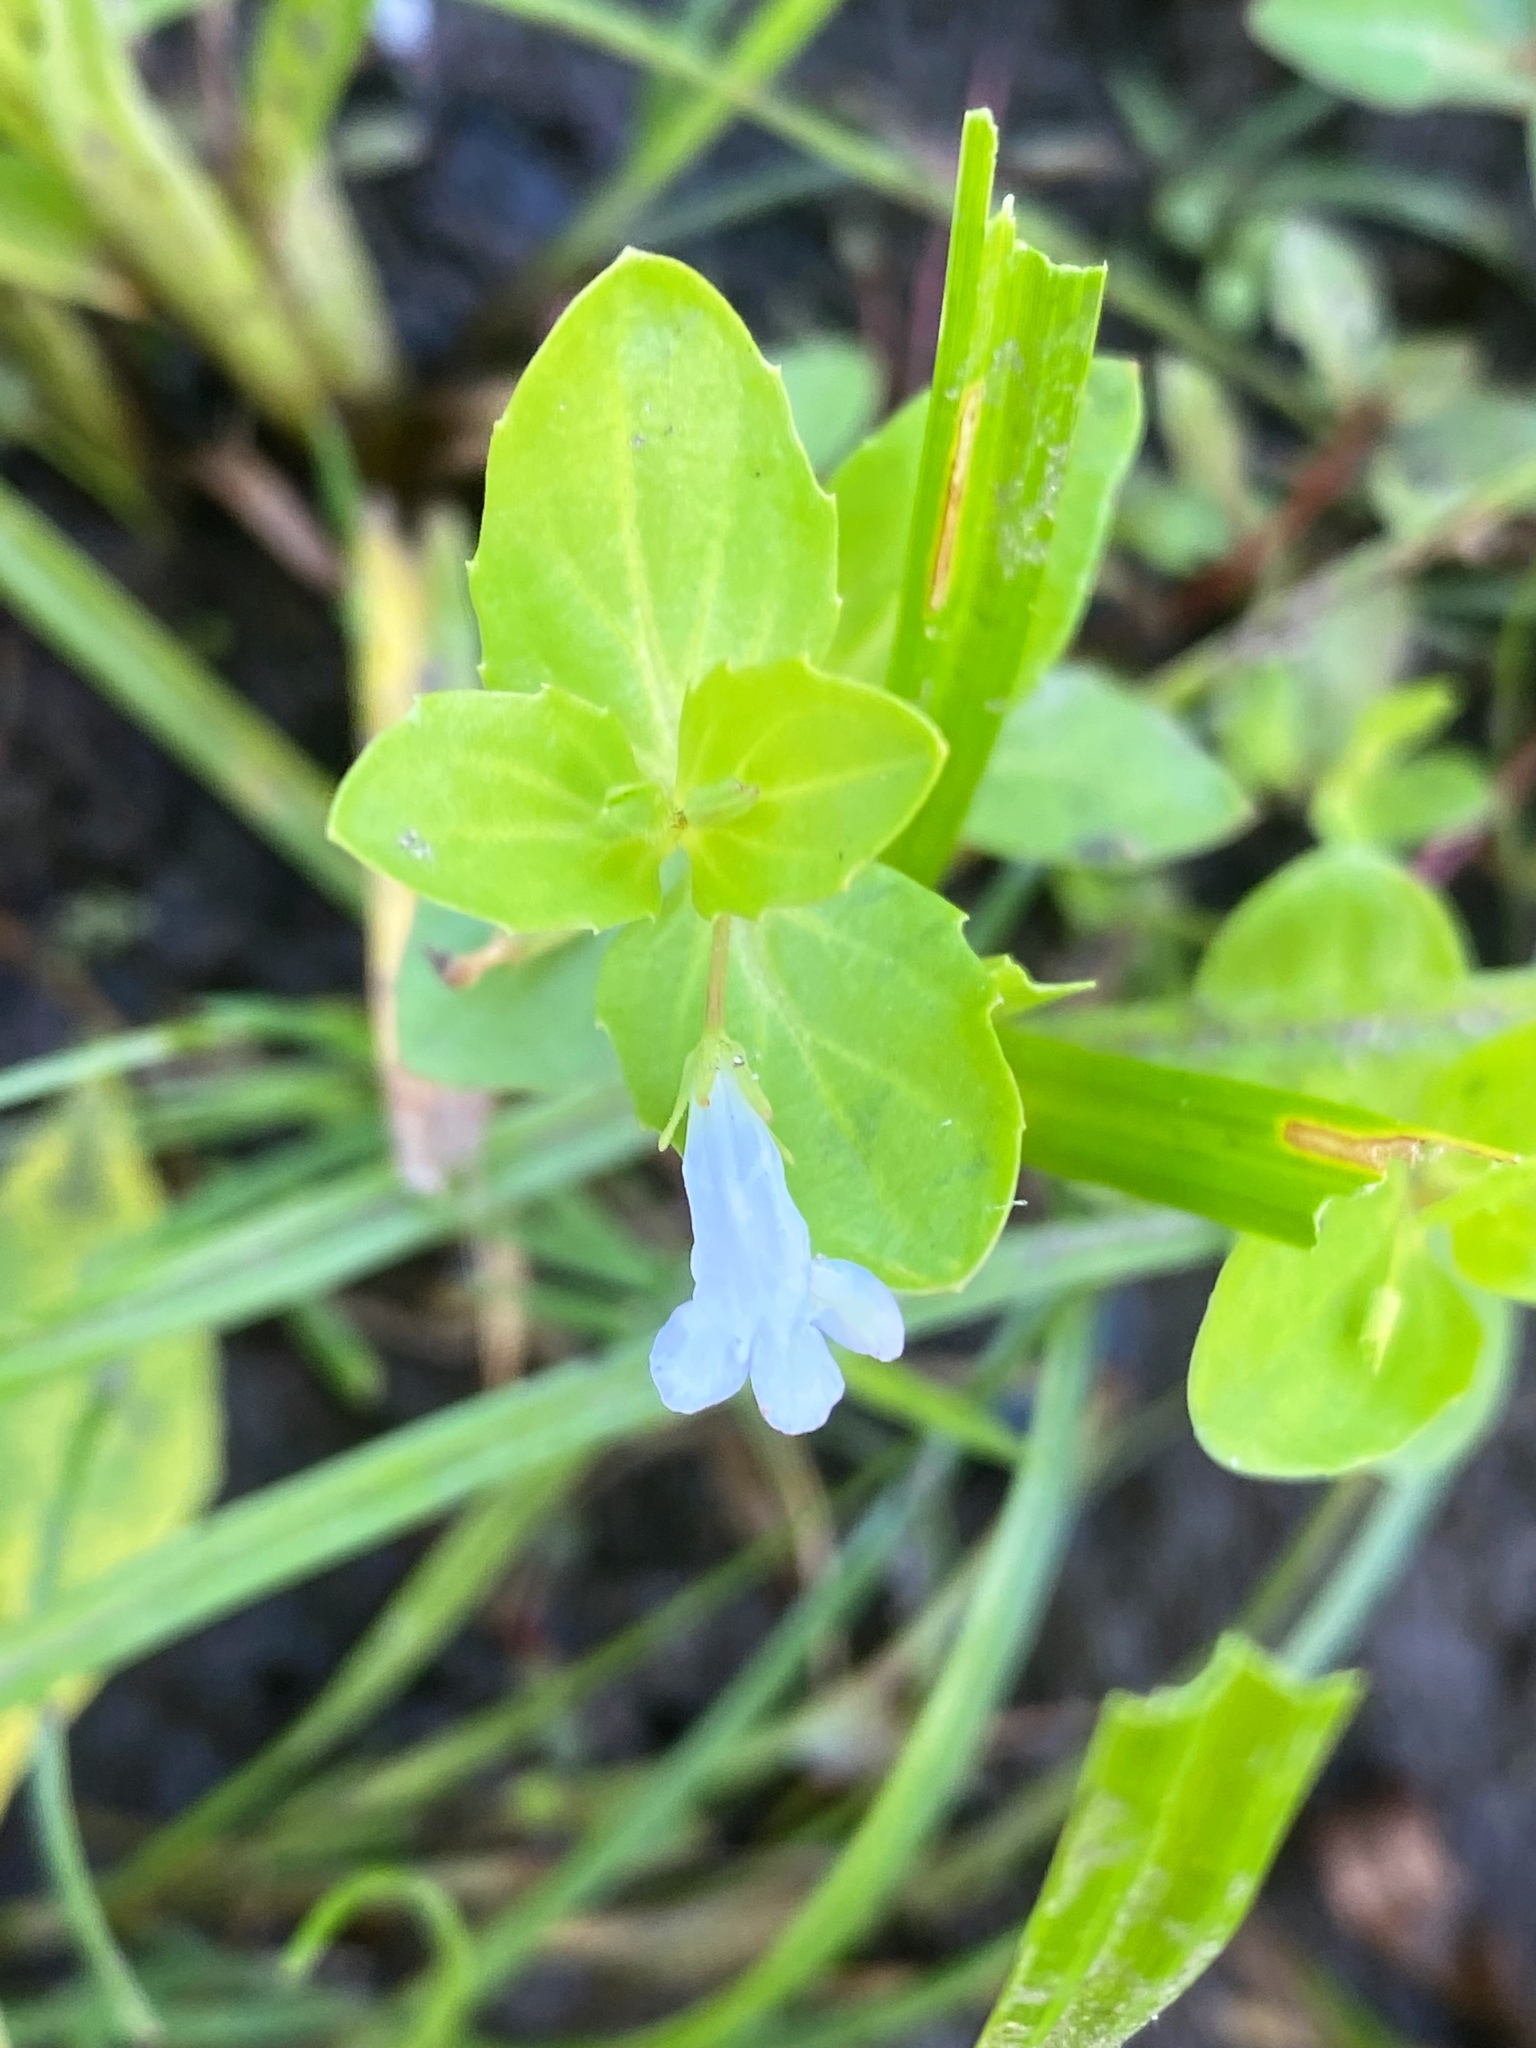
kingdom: Plantae
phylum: Tracheophyta
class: Magnoliopsida
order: Lamiales
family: Linderniaceae
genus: Lindernia
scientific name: Lindernia dubia
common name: Annual false pimpernel
